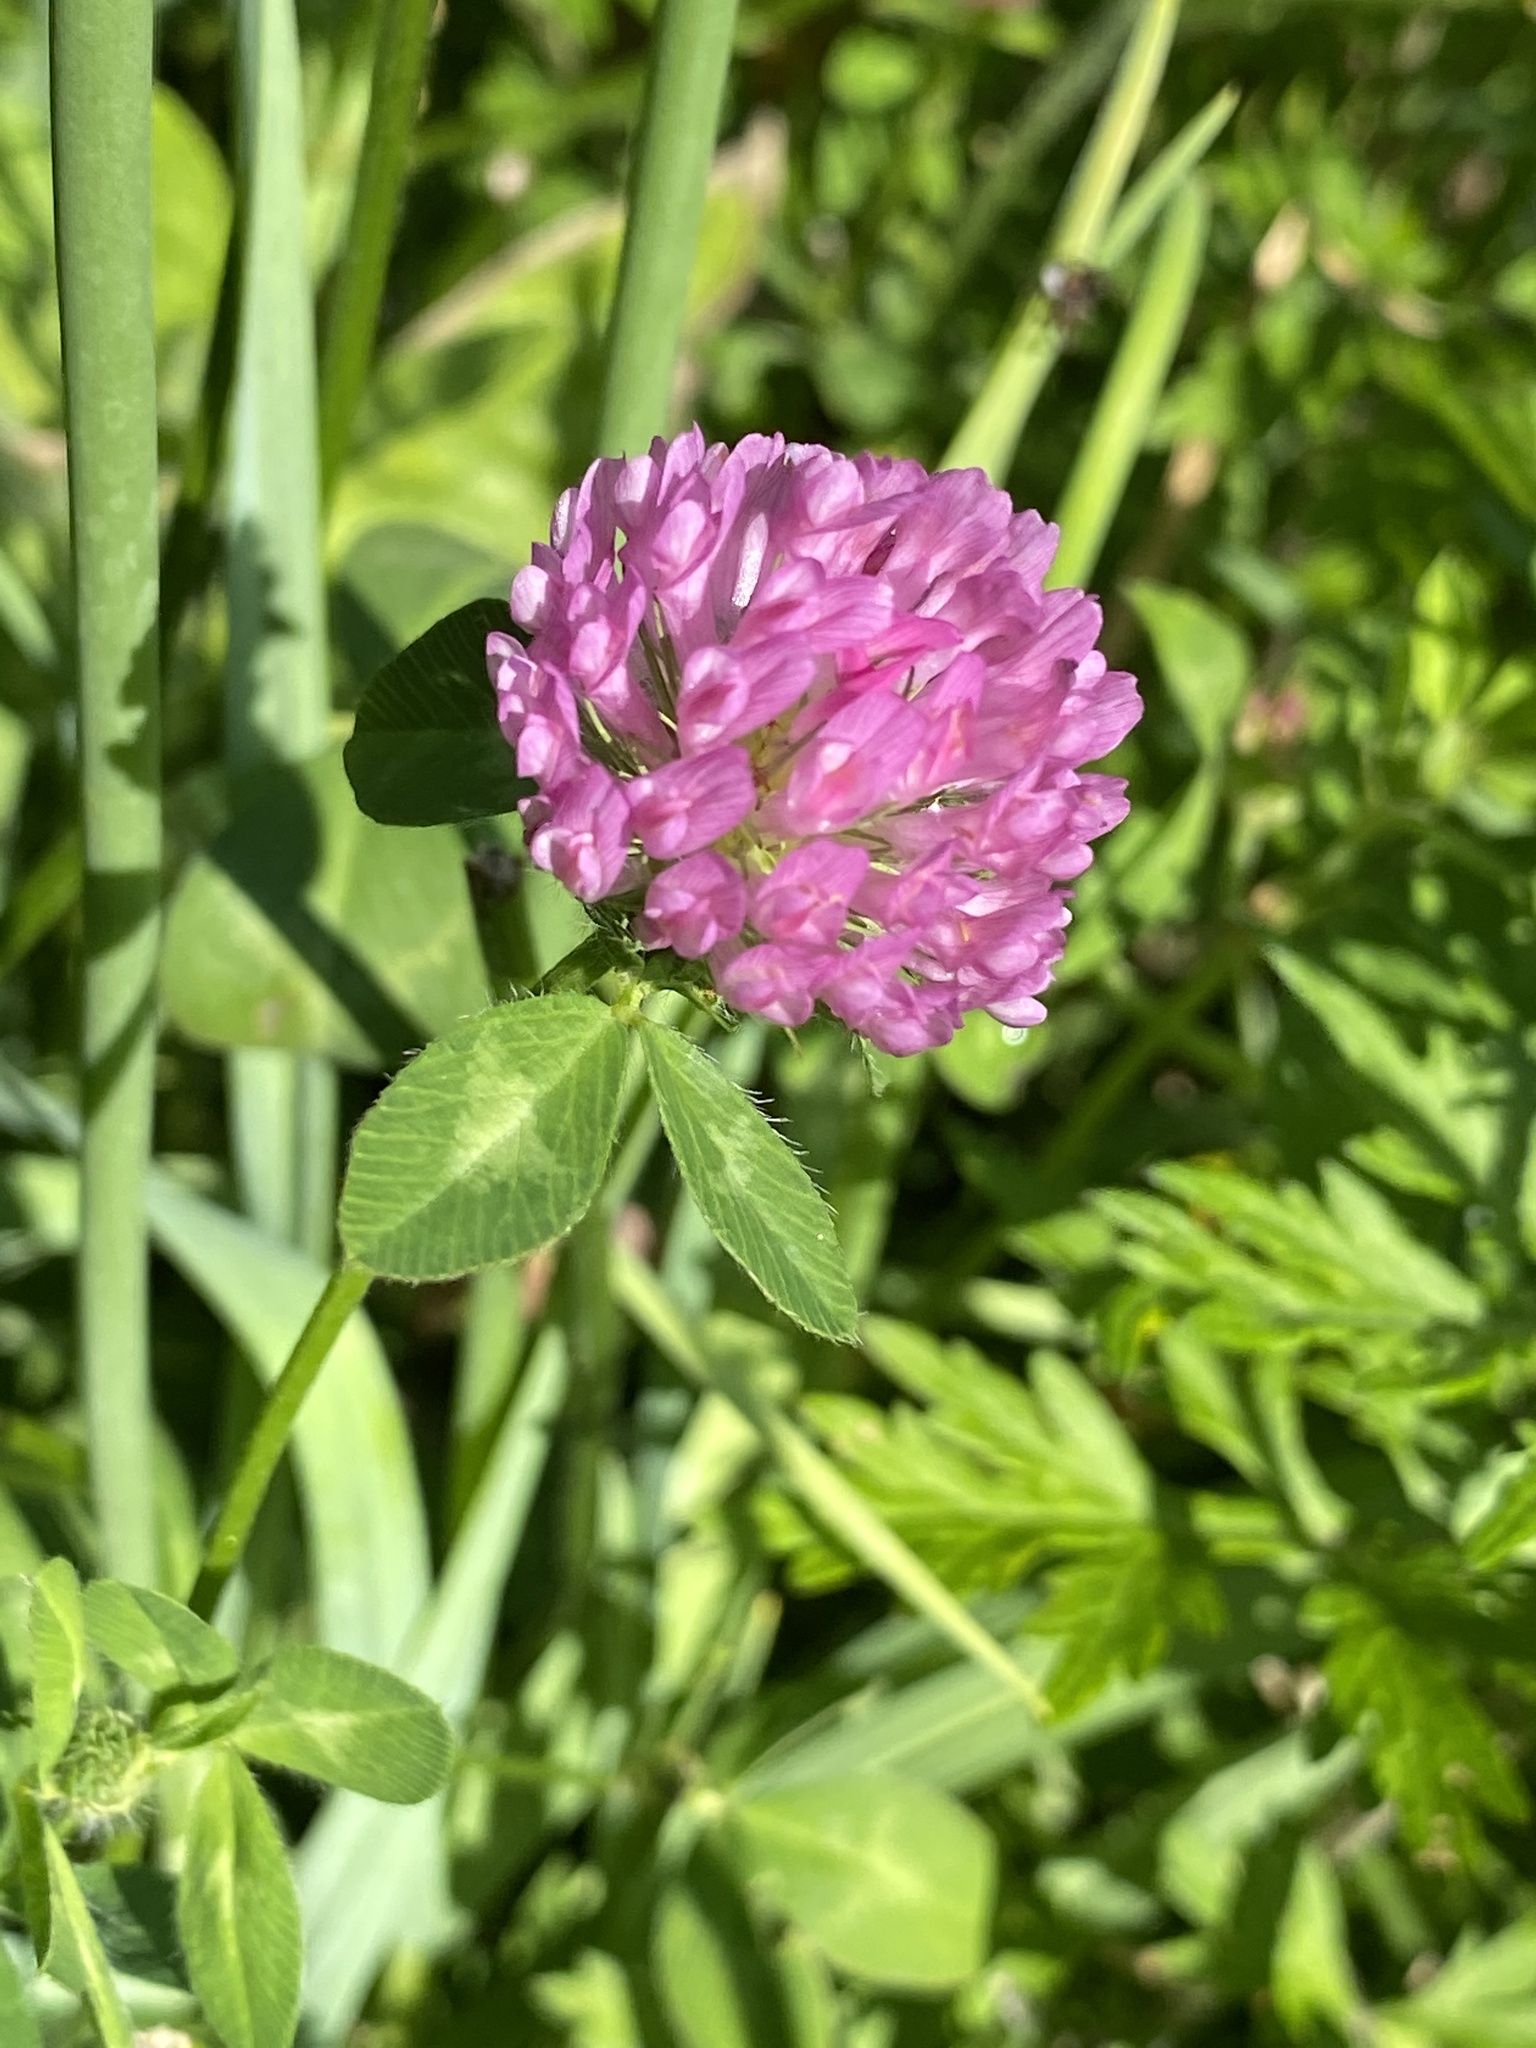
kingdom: Plantae
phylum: Tracheophyta
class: Magnoliopsida
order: Fabales
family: Fabaceae
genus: Trifolium
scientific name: Trifolium pratense
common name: Red clover
